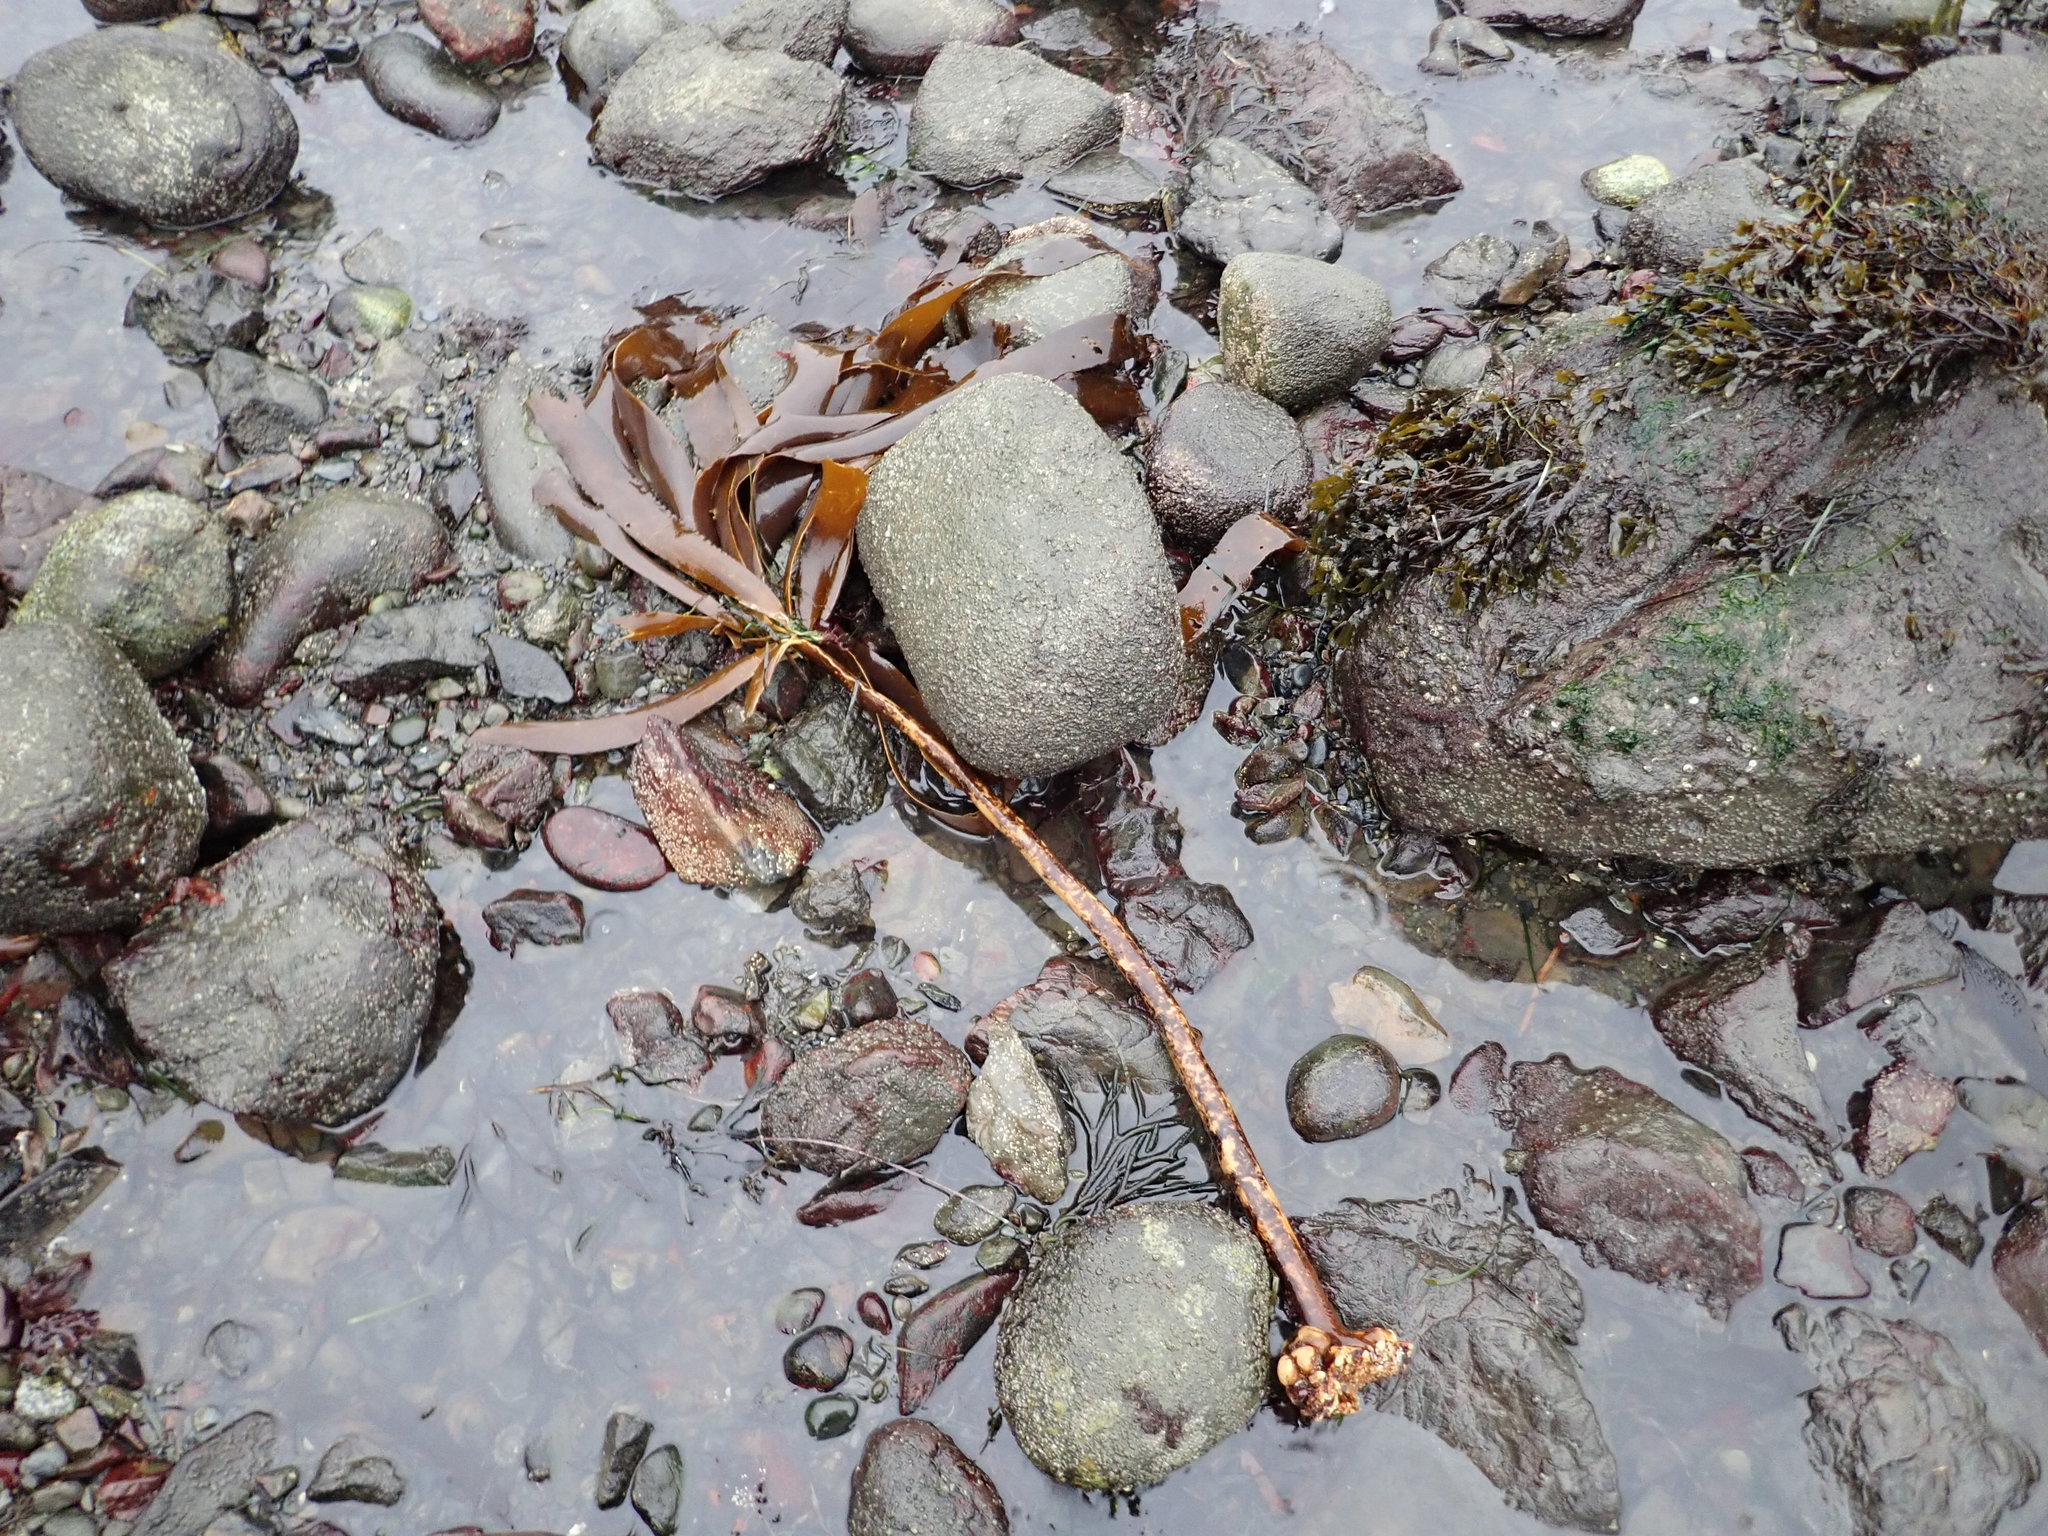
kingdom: Chromista
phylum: Ochrophyta
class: Phaeophyceae
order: Laminariales
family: Alariaceae
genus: Pterygophora
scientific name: Pterygophora californica
